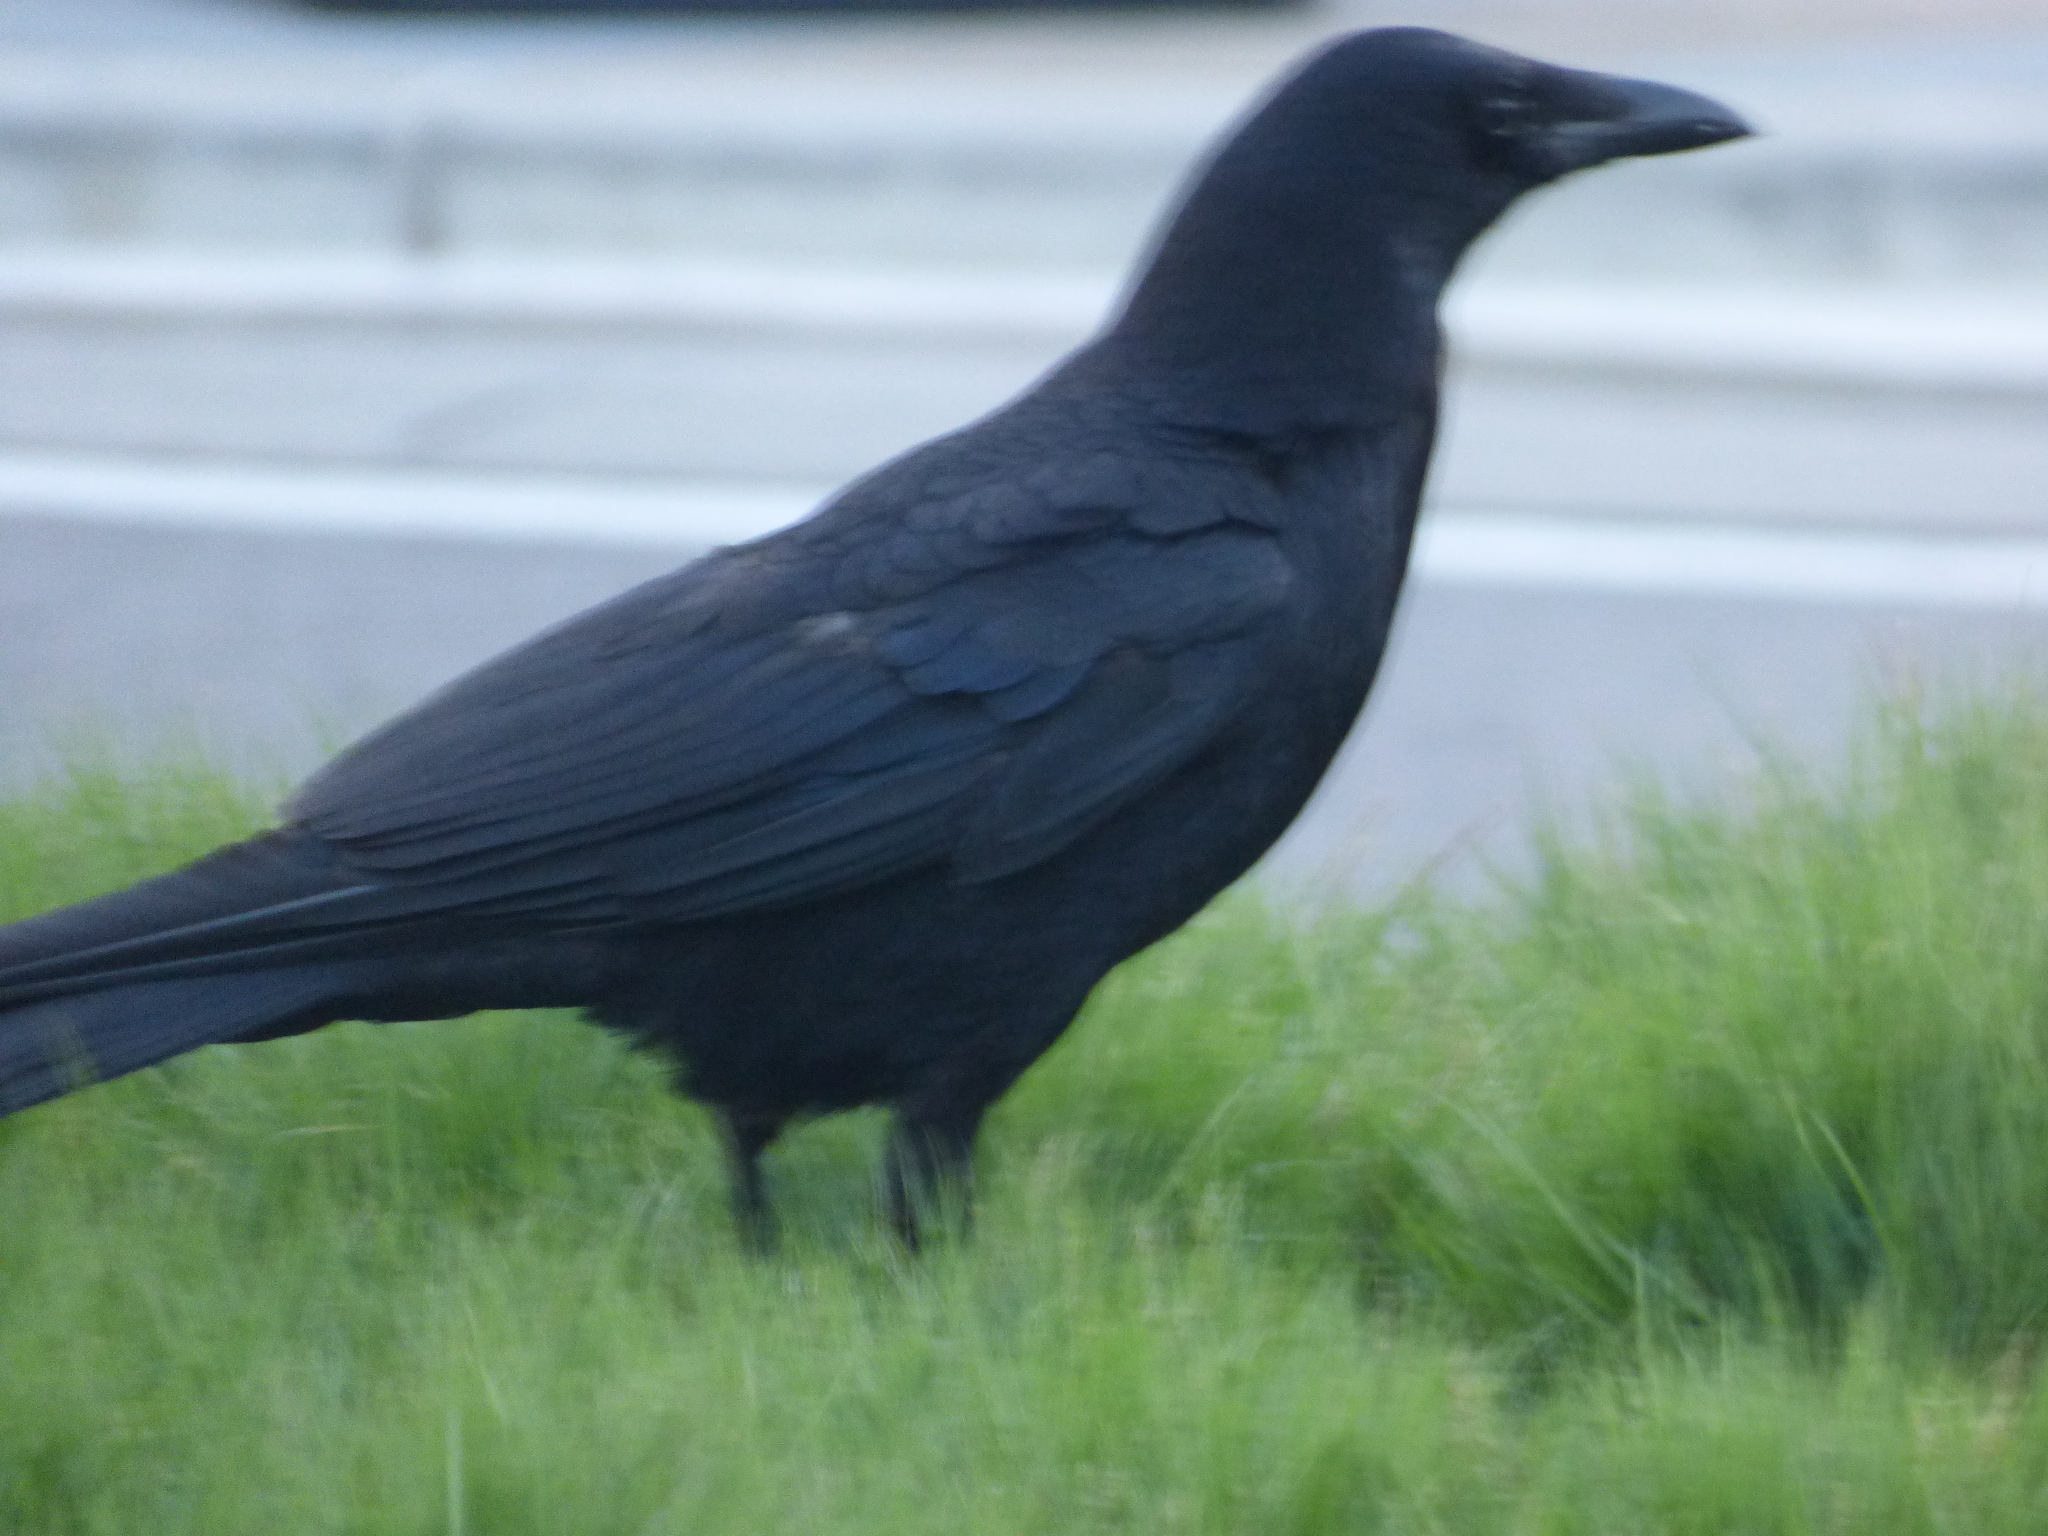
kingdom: Animalia
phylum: Chordata
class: Aves
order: Passeriformes
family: Corvidae
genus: Corvus
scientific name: Corvus corone
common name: Carrion crow
